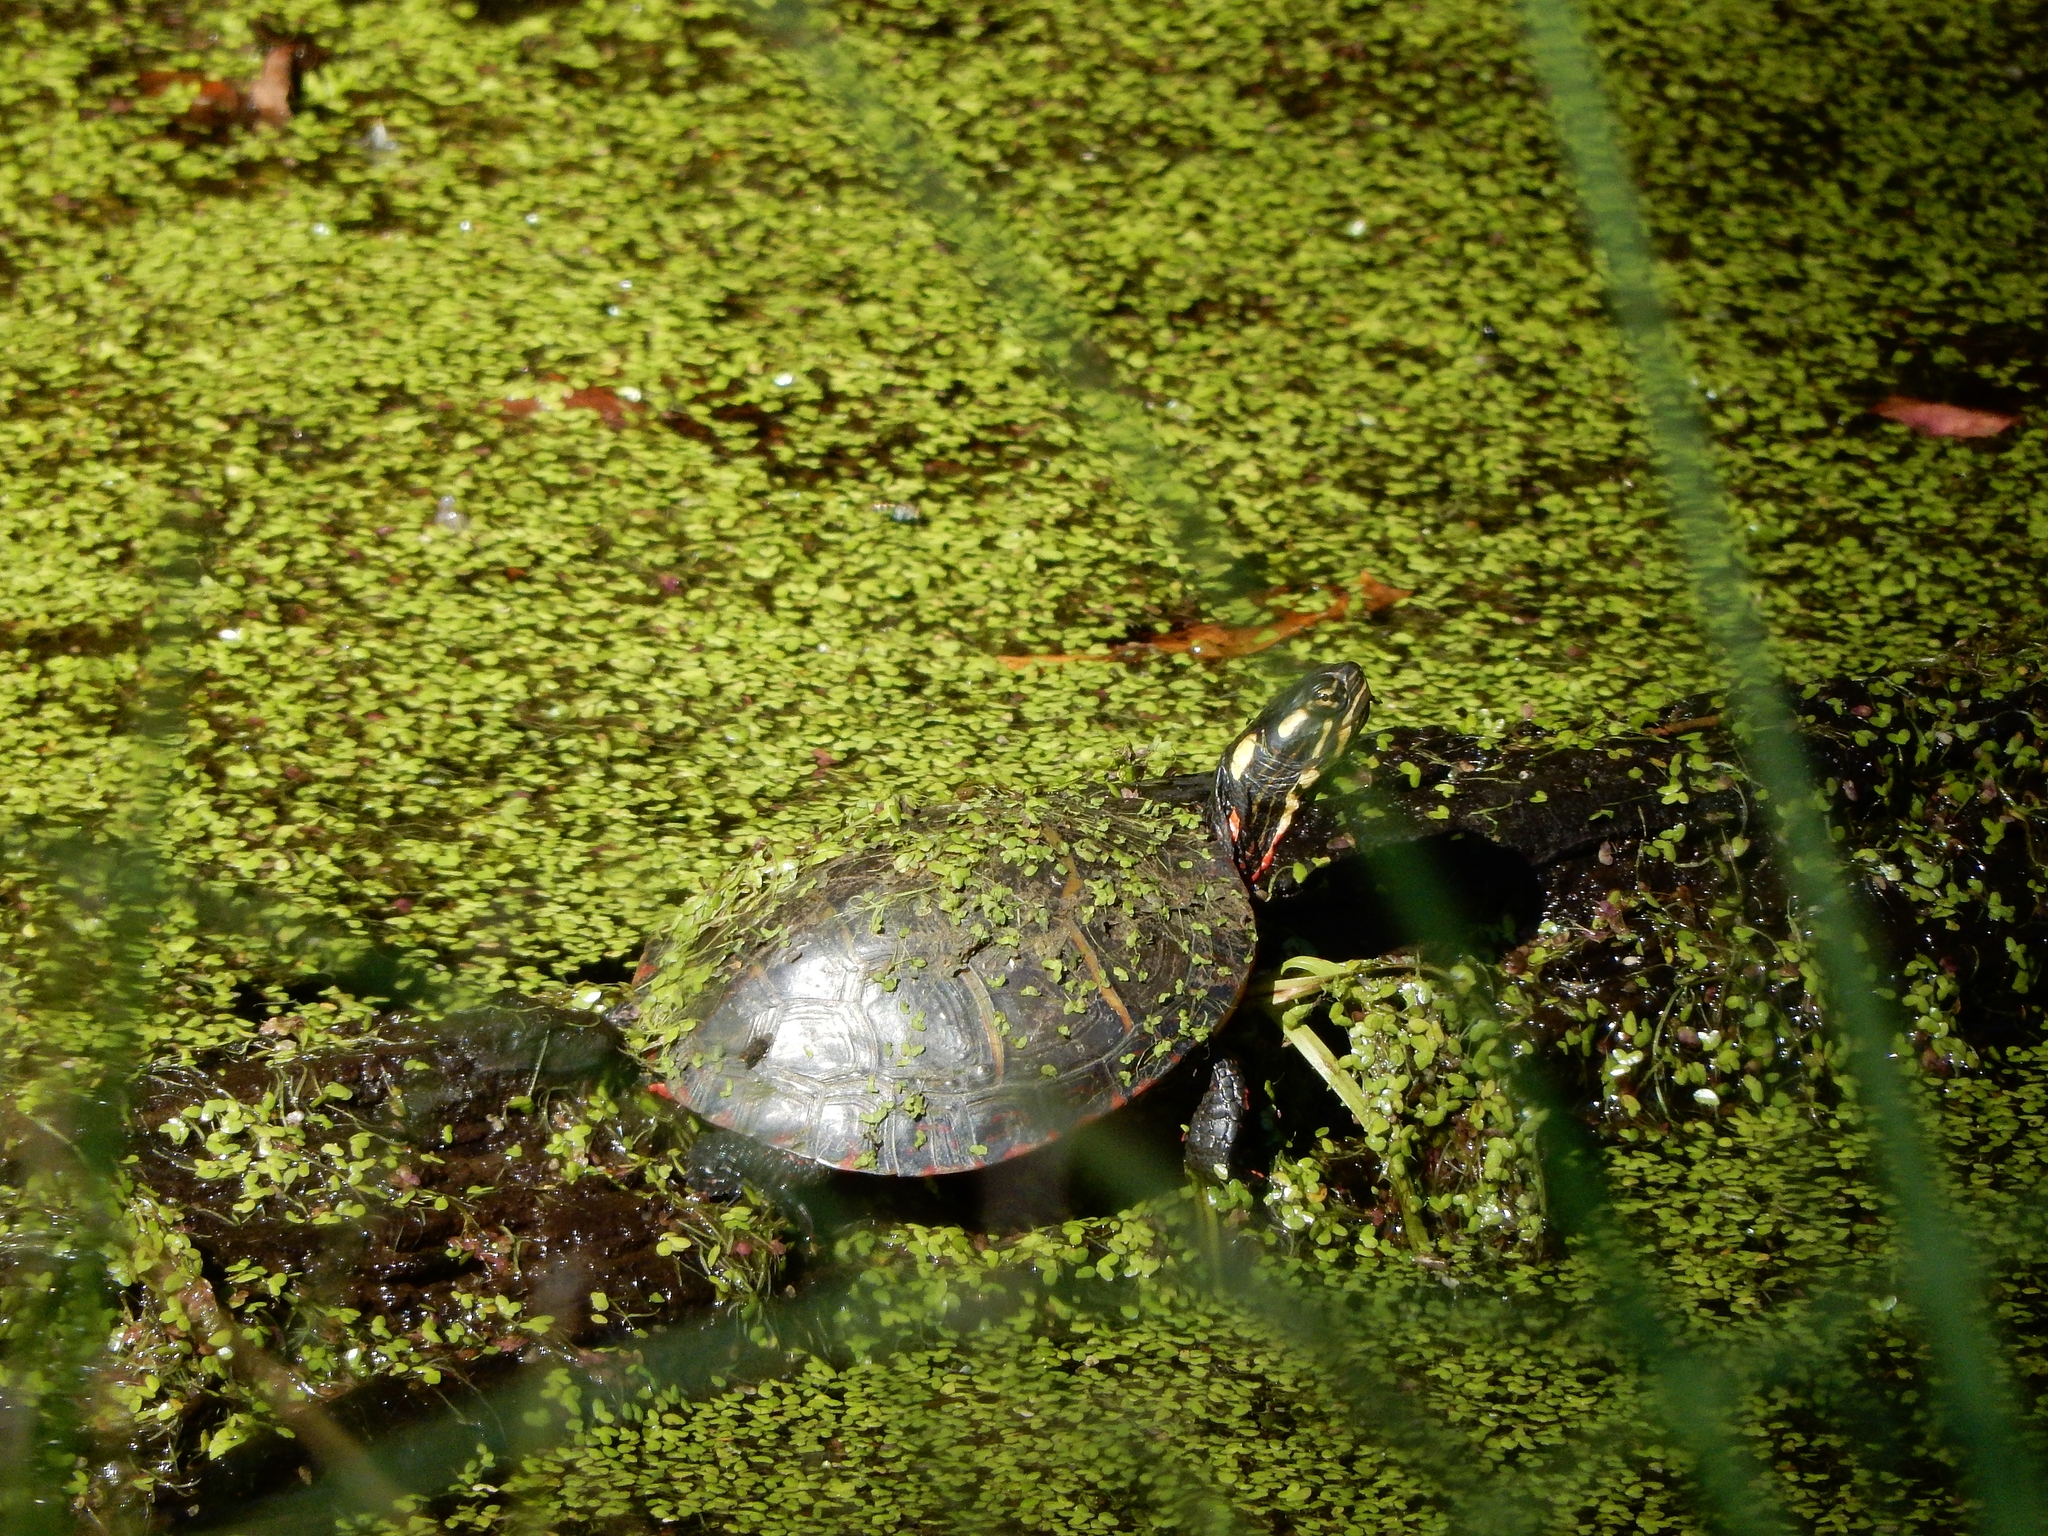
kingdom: Animalia
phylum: Chordata
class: Testudines
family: Emydidae
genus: Chrysemys
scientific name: Chrysemys picta
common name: Painted turtle
